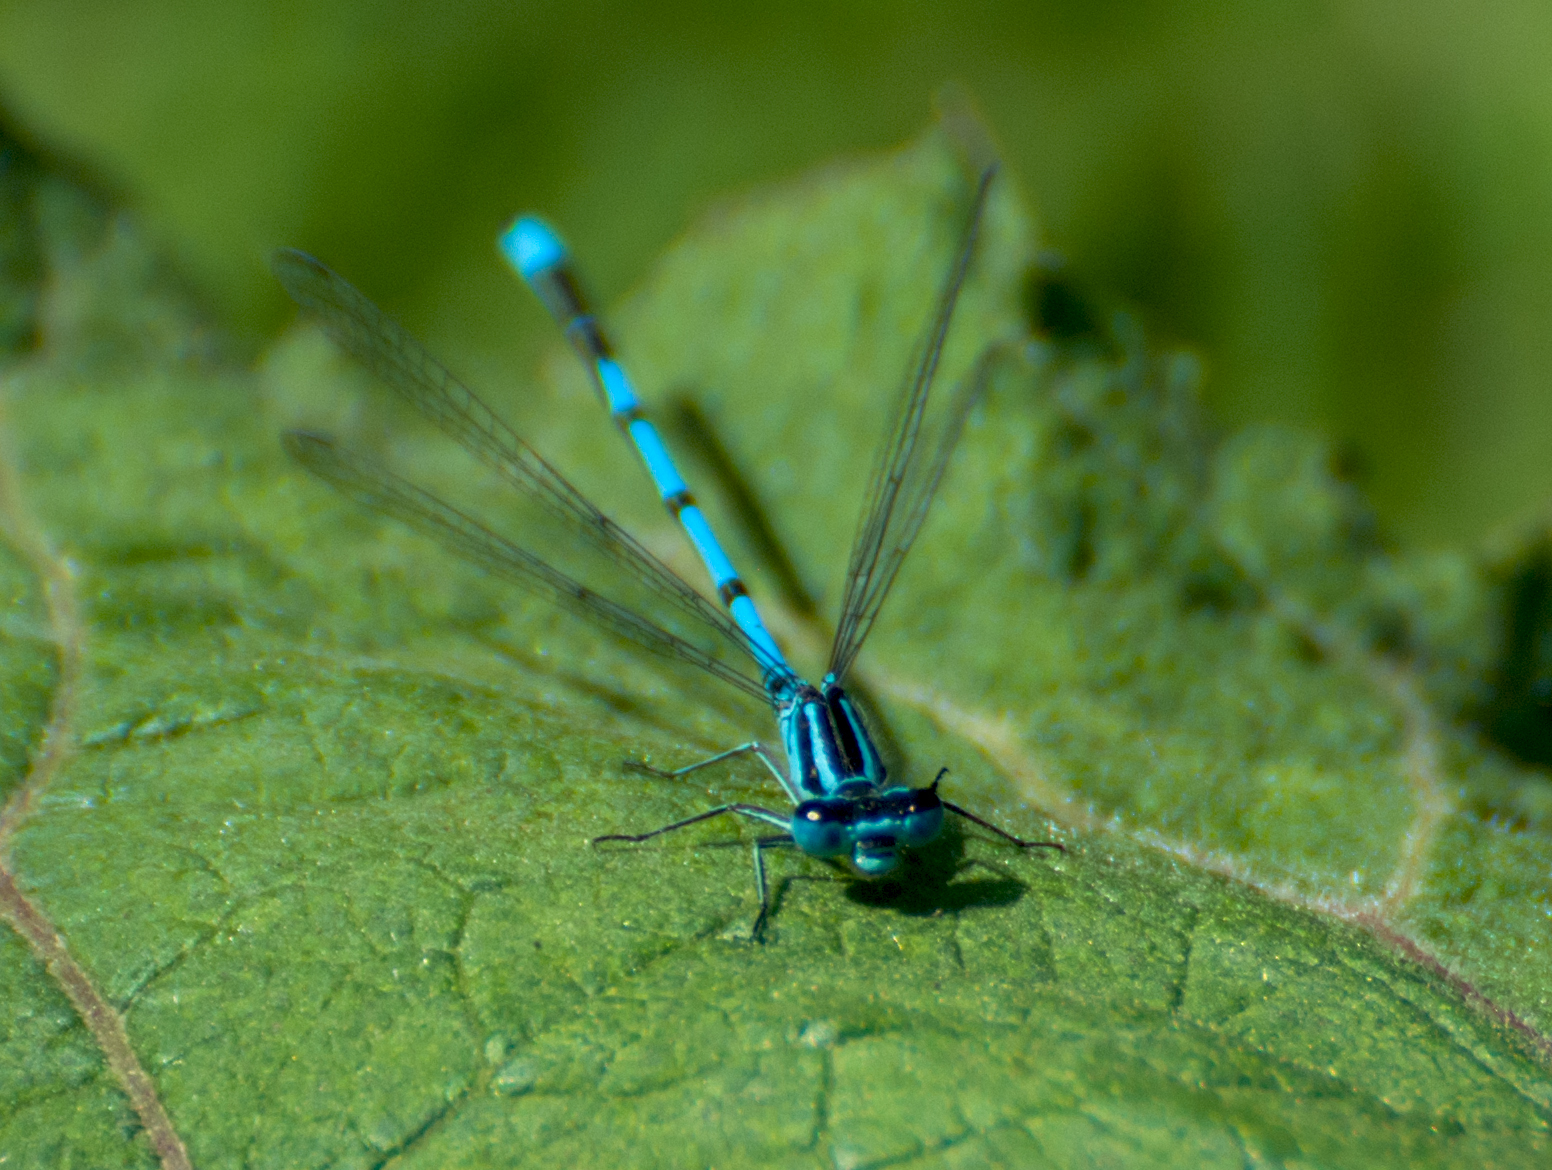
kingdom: Animalia
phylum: Arthropoda
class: Insecta
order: Odonata
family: Coenagrionidae
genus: Coenagrion
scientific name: Coenagrion puella
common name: Azure damselfly
